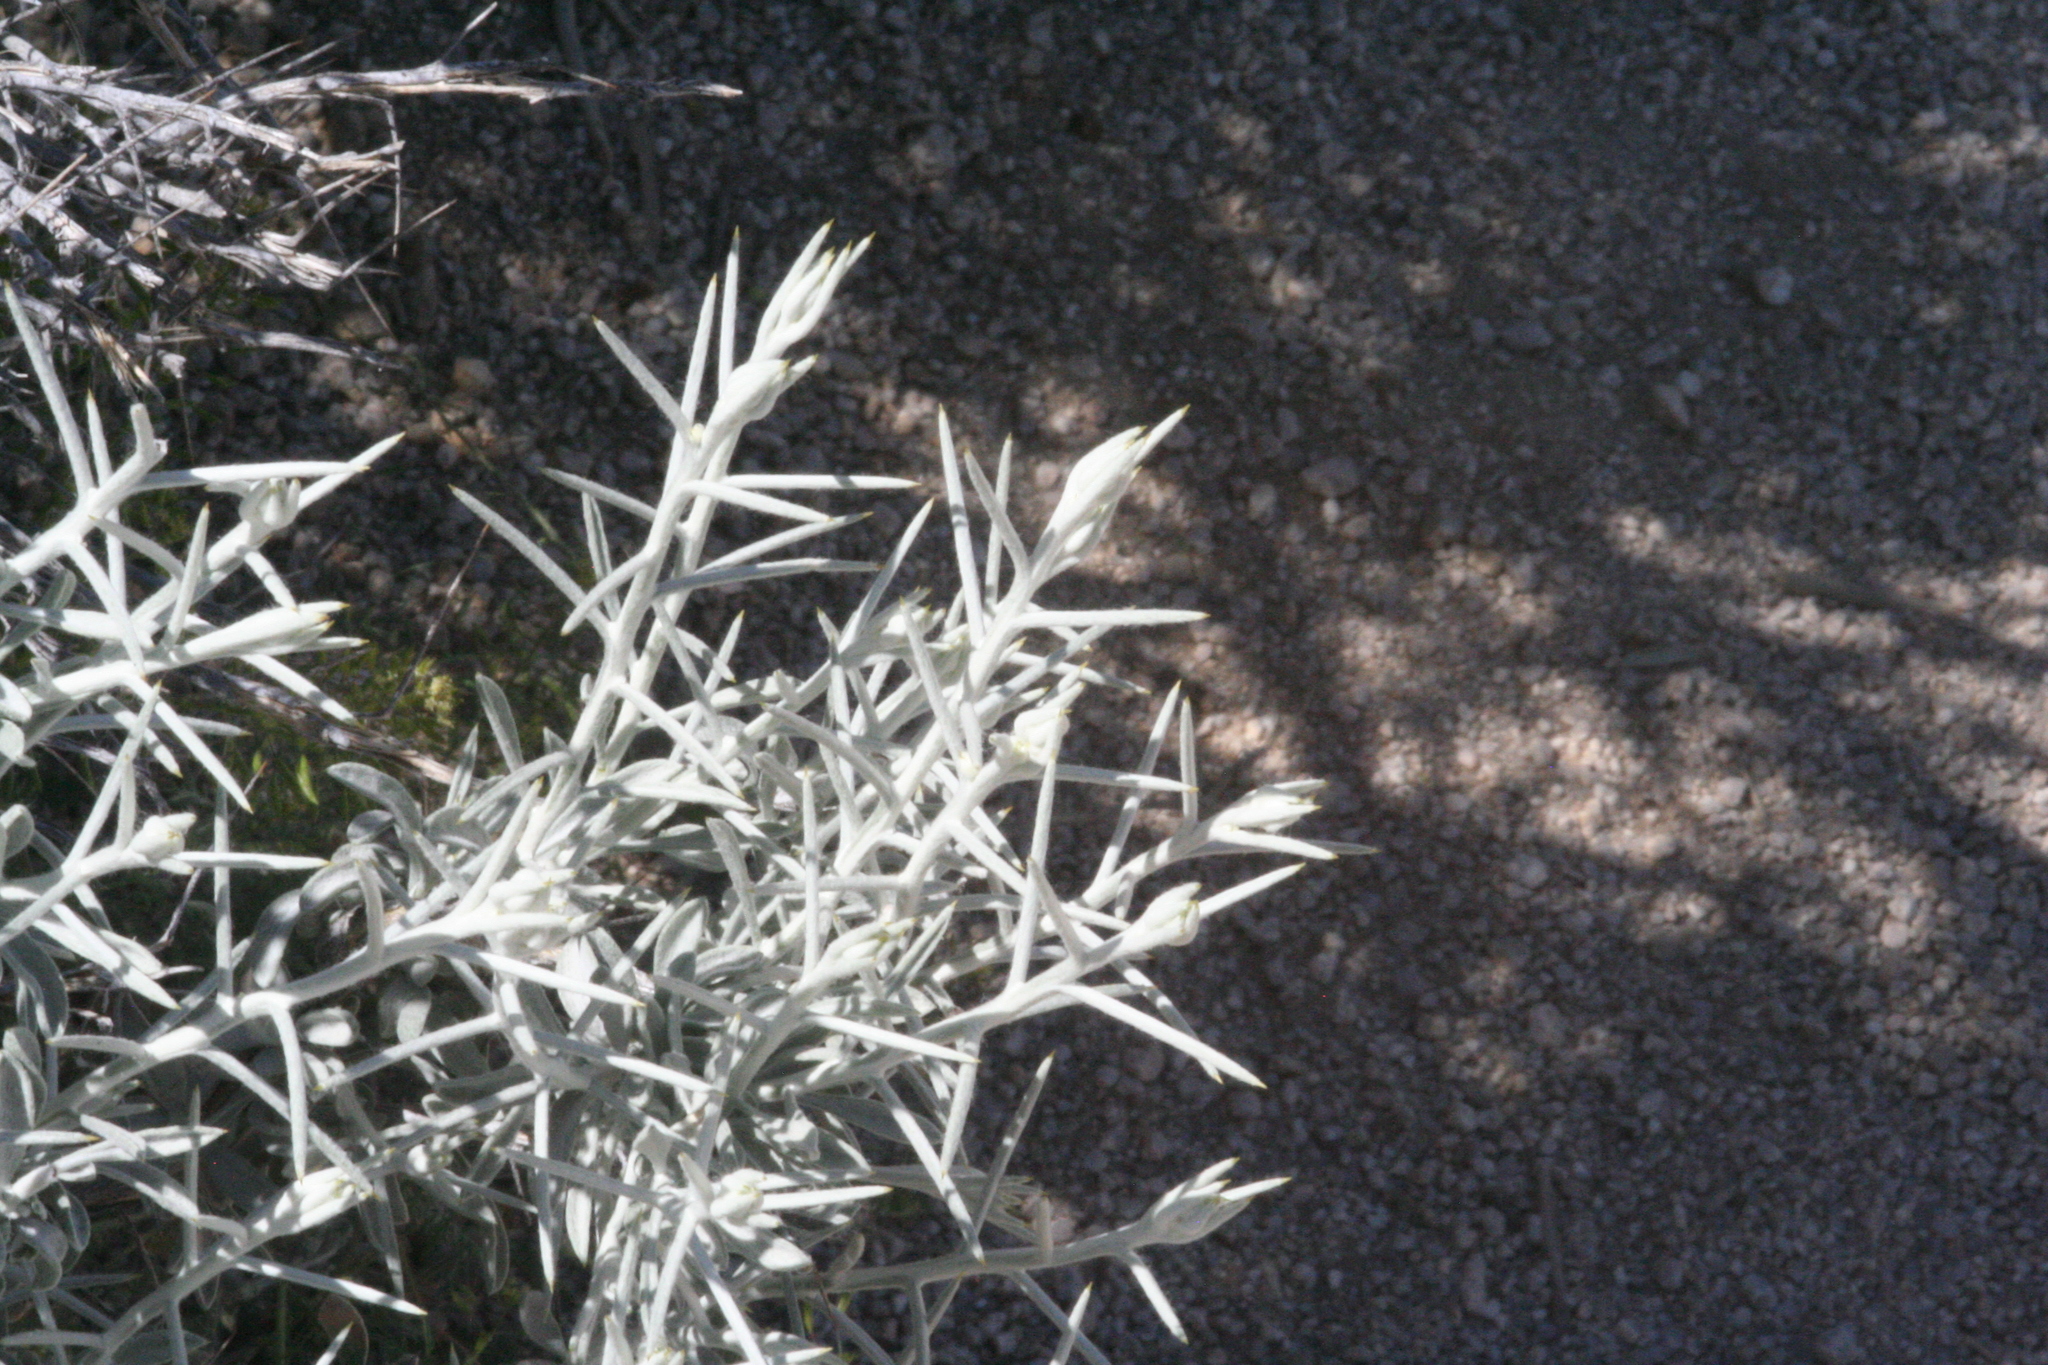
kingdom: Plantae
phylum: Tracheophyta
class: Magnoliopsida
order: Asterales
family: Asteraceae
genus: Tetradymia
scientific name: Tetradymia stenolepis
